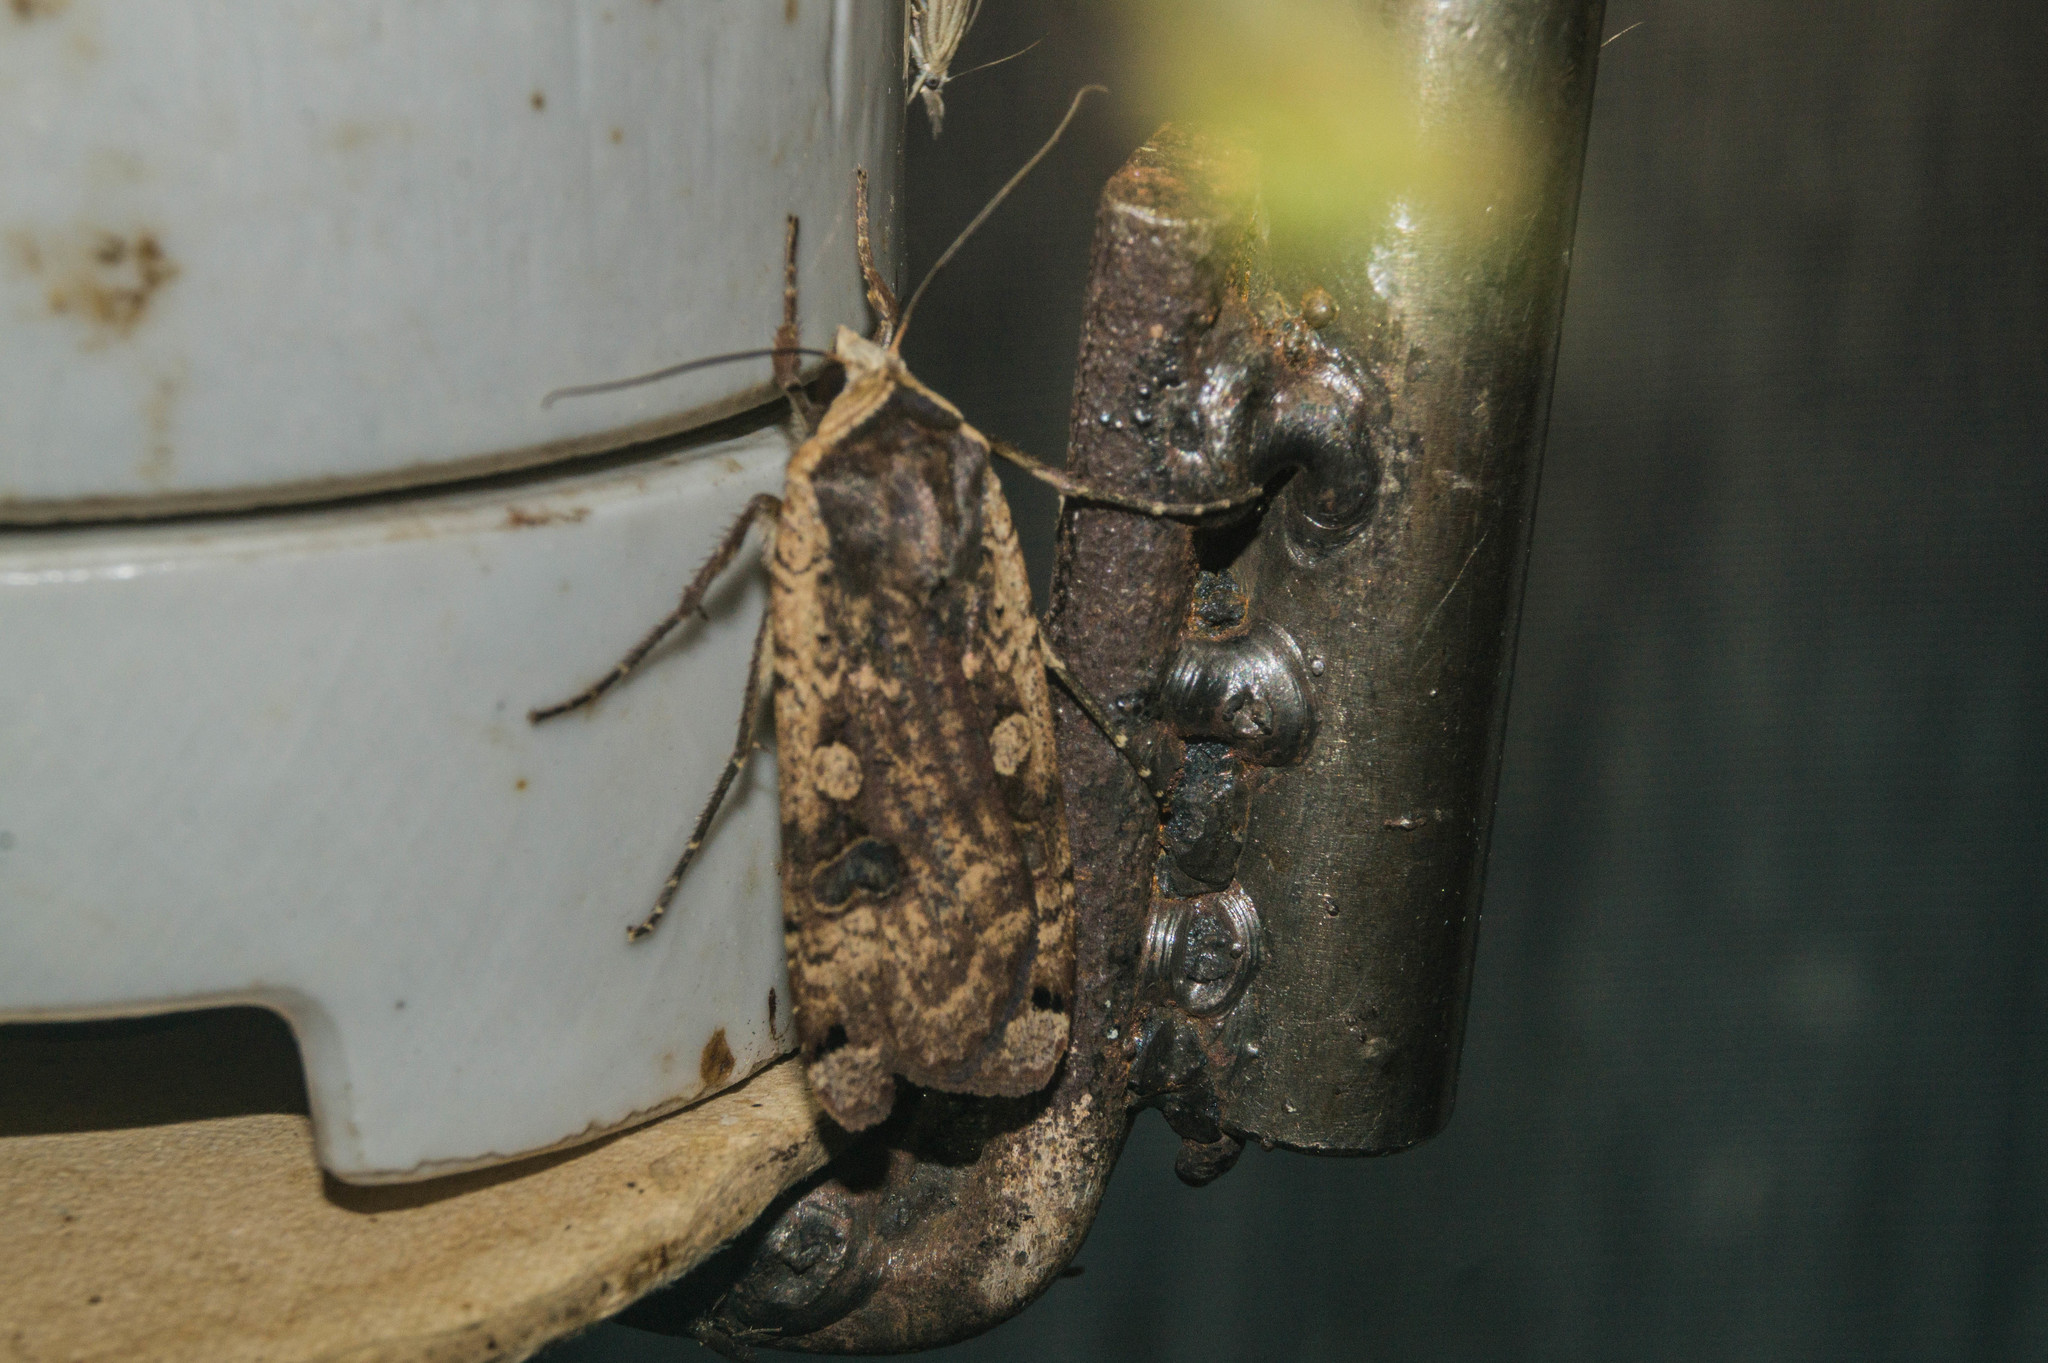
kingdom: Animalia
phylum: Arthropoda
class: Insecta
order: Lepidoptera
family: Noctuidae
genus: Noctua
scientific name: Noctua pronuba
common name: Large yellow underwing
